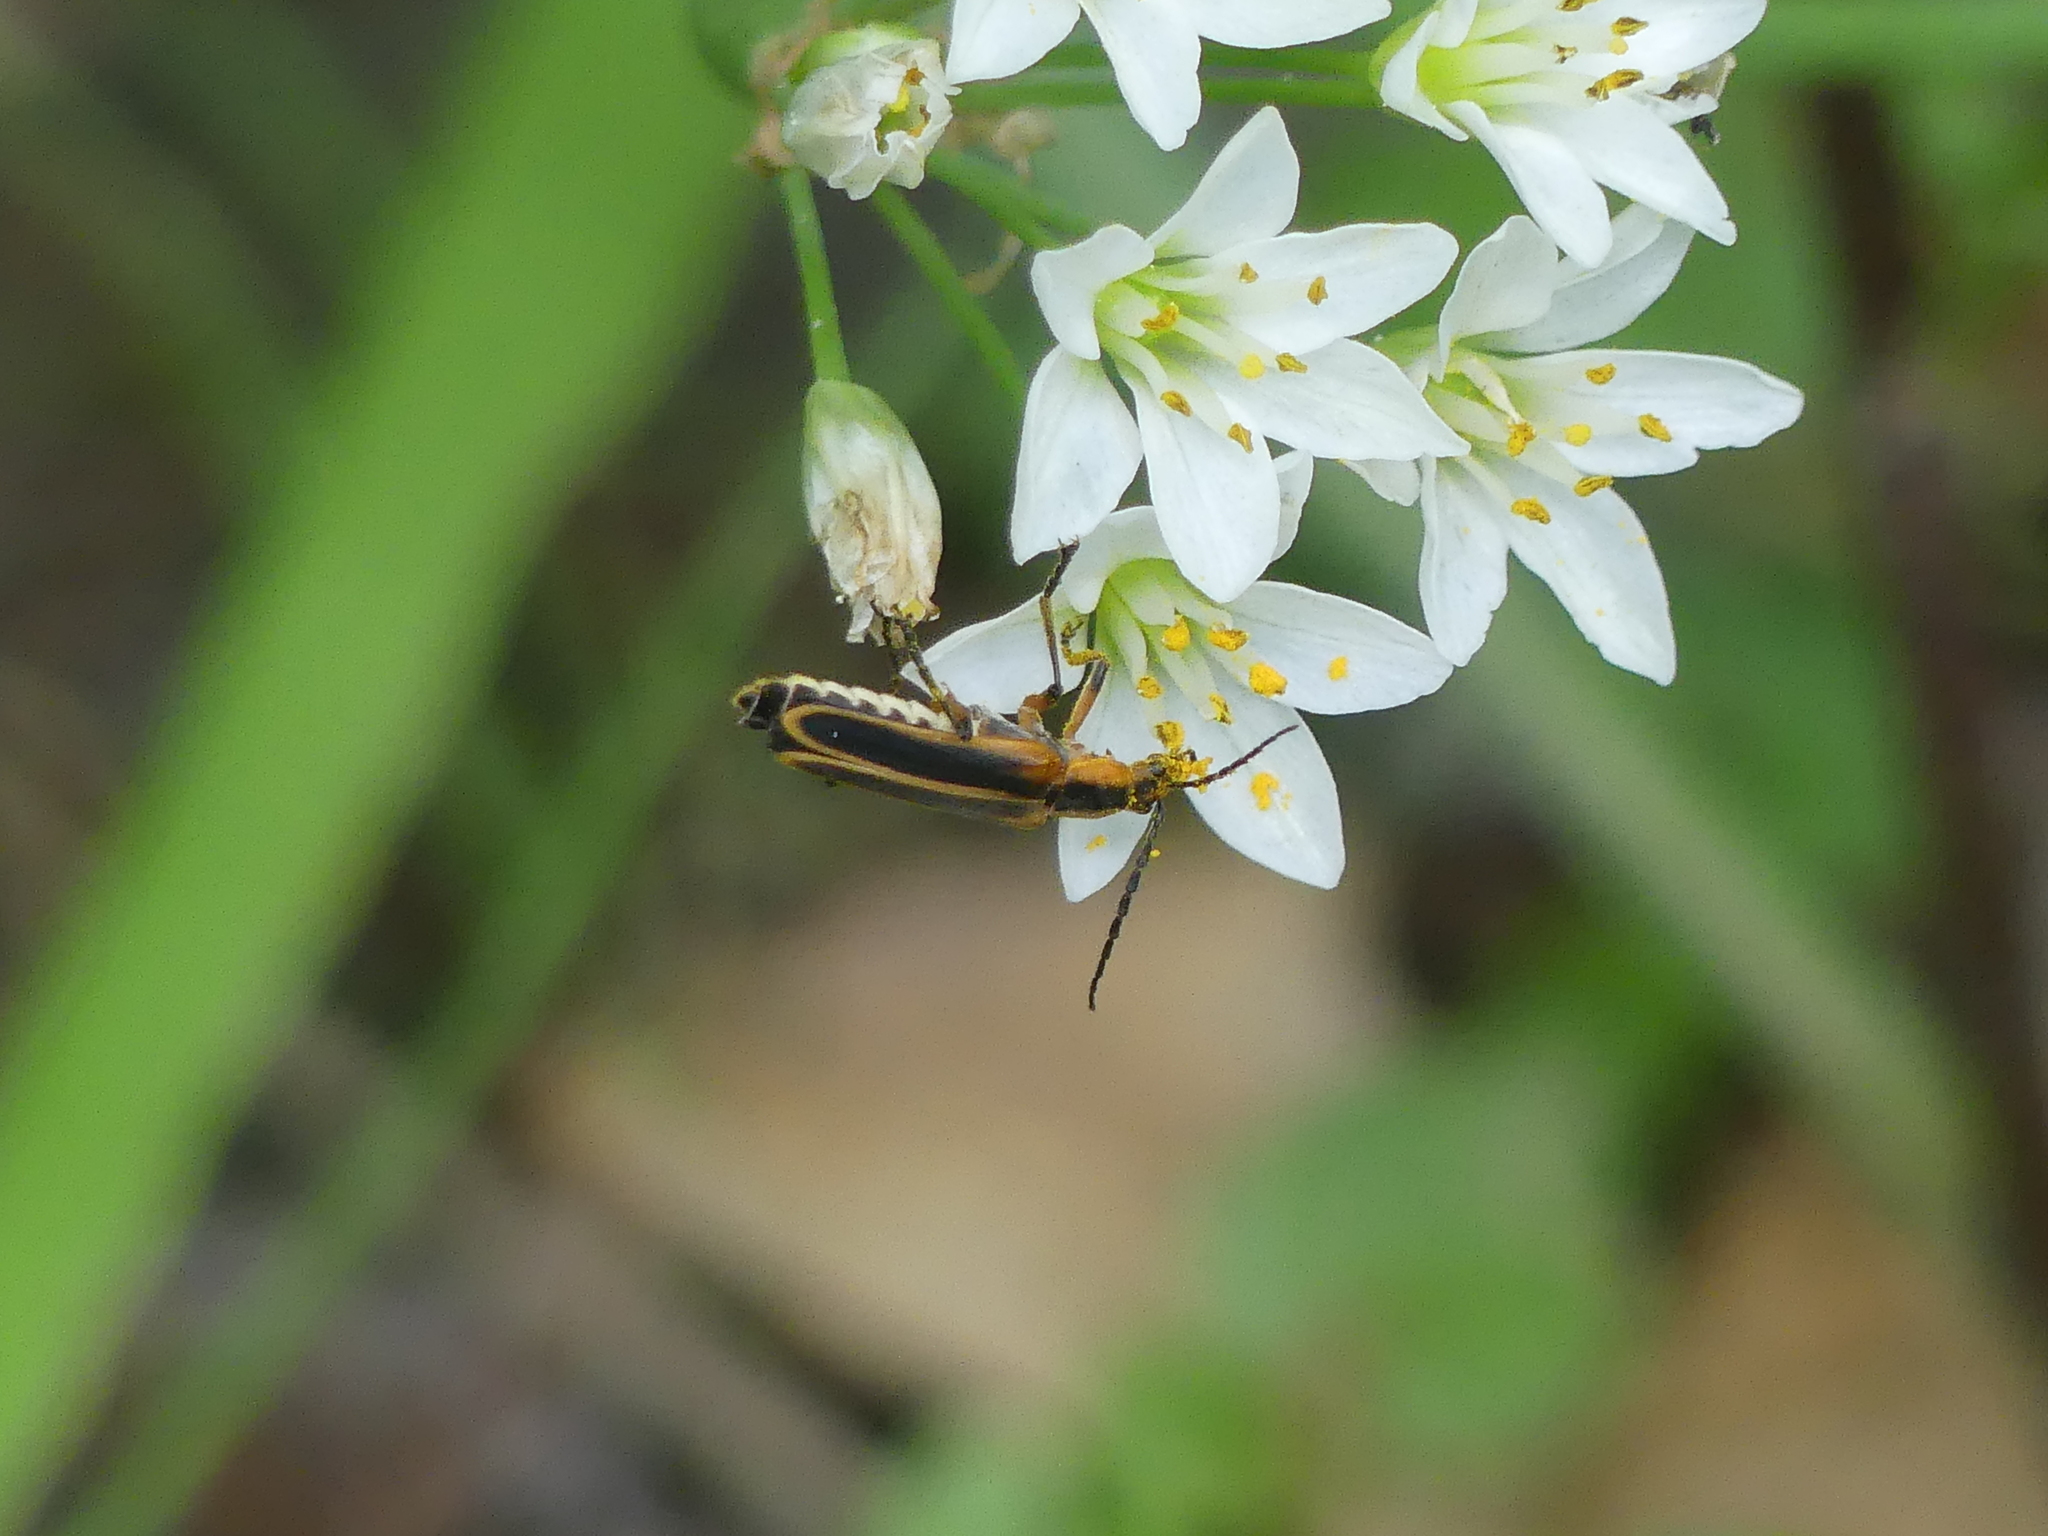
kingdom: Animalia
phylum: Arthropoda
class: Insecta
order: Coleoptera
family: Cantharidae
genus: Chauliognathus
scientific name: Chauliognathus marginatus
